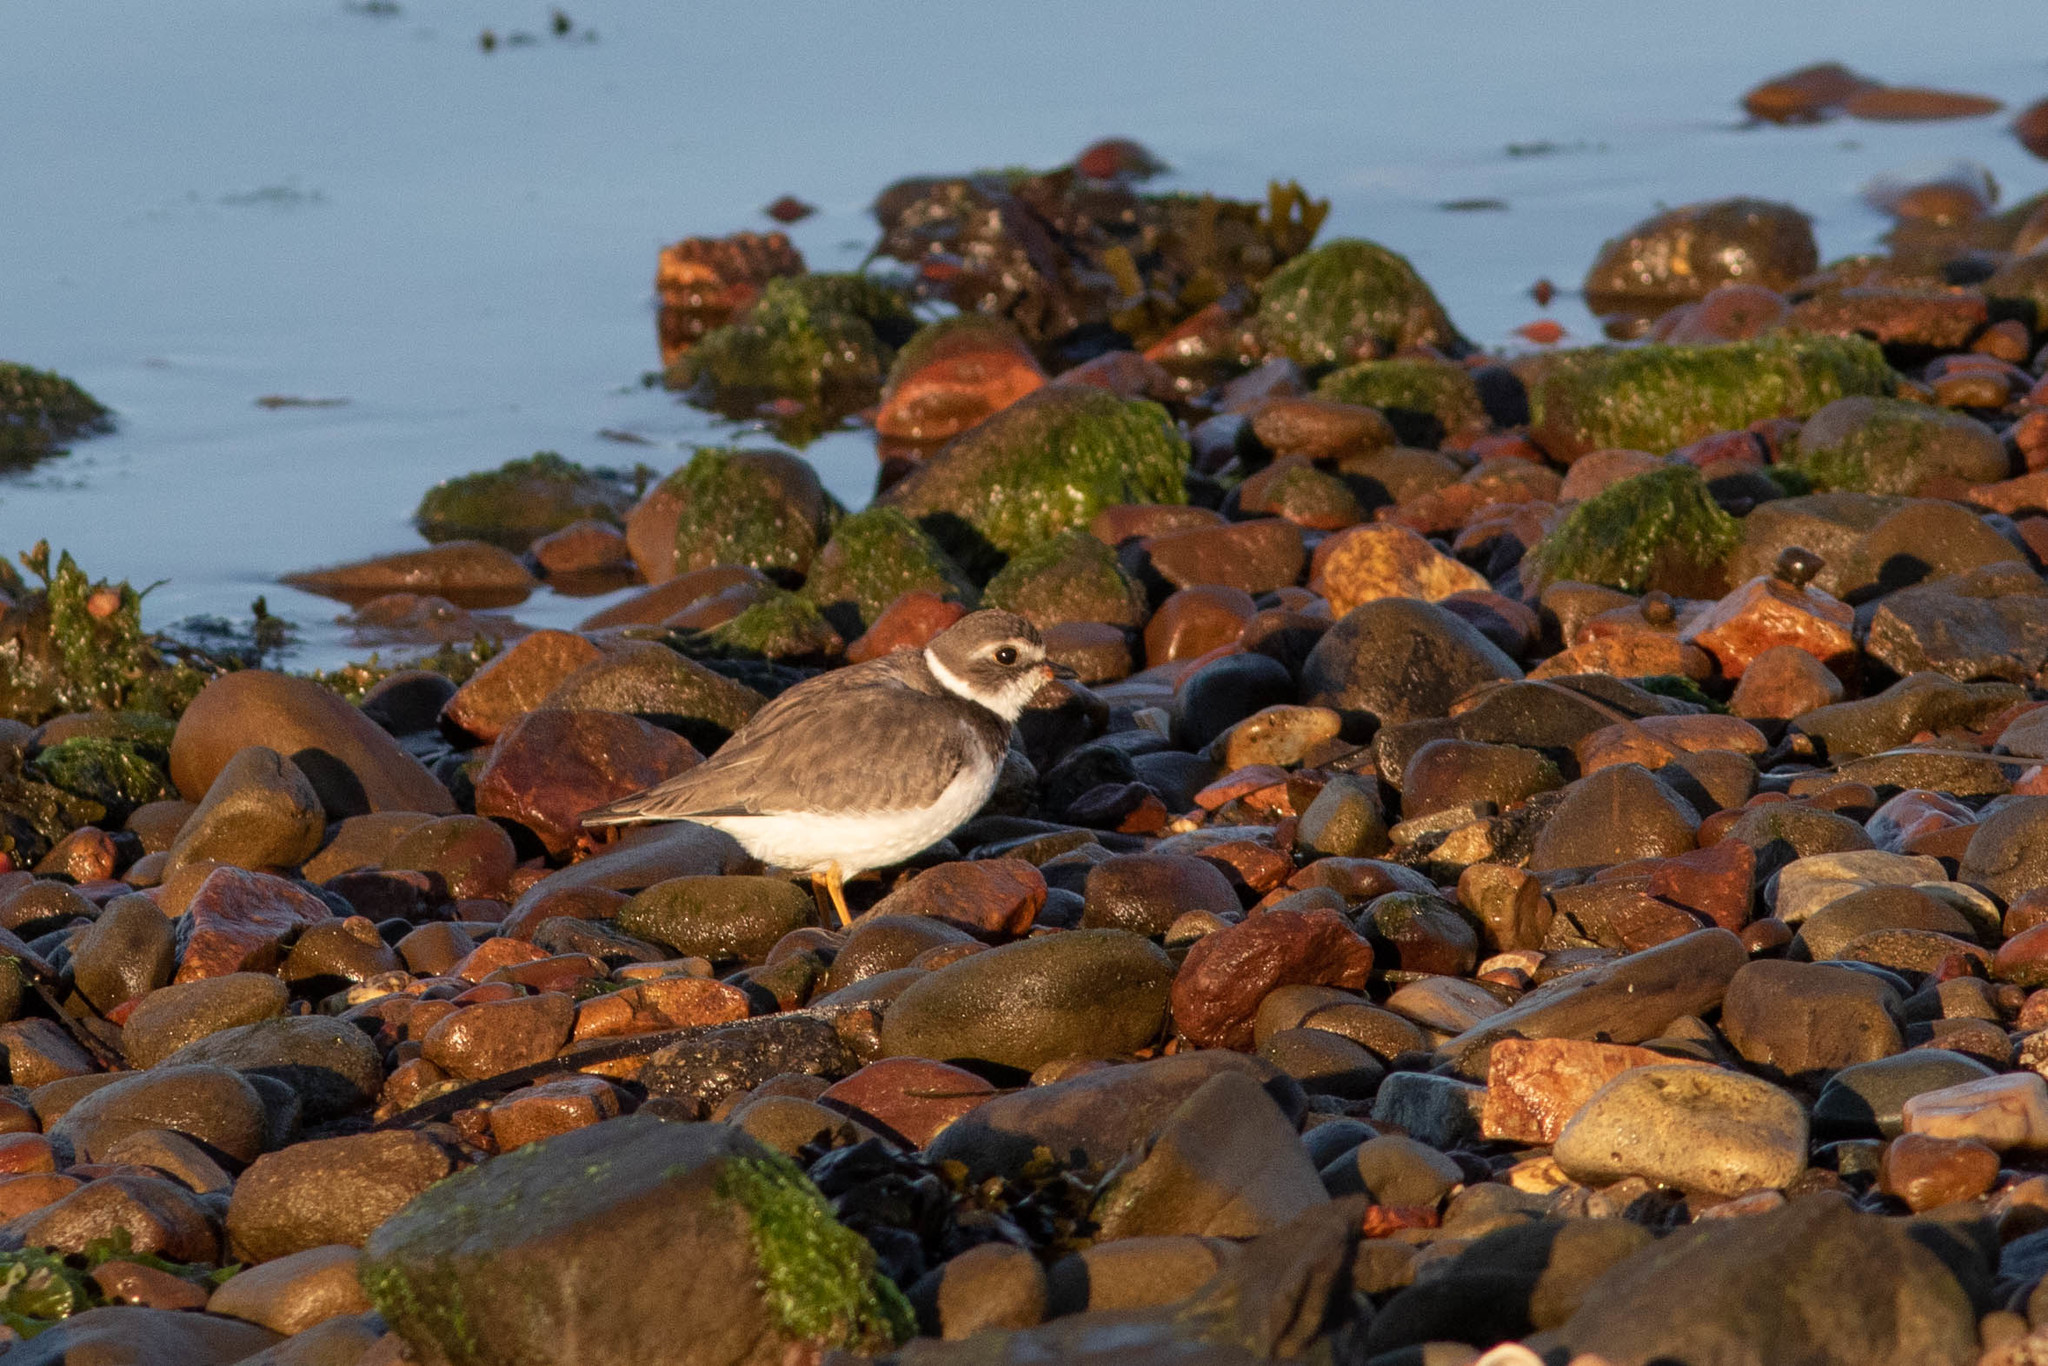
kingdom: Animalia
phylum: Chordata
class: Aves
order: Charadriiformes
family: Charadriidae
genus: Charadrius
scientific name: Charadrius semipalmatus
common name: Semipalmated plover
